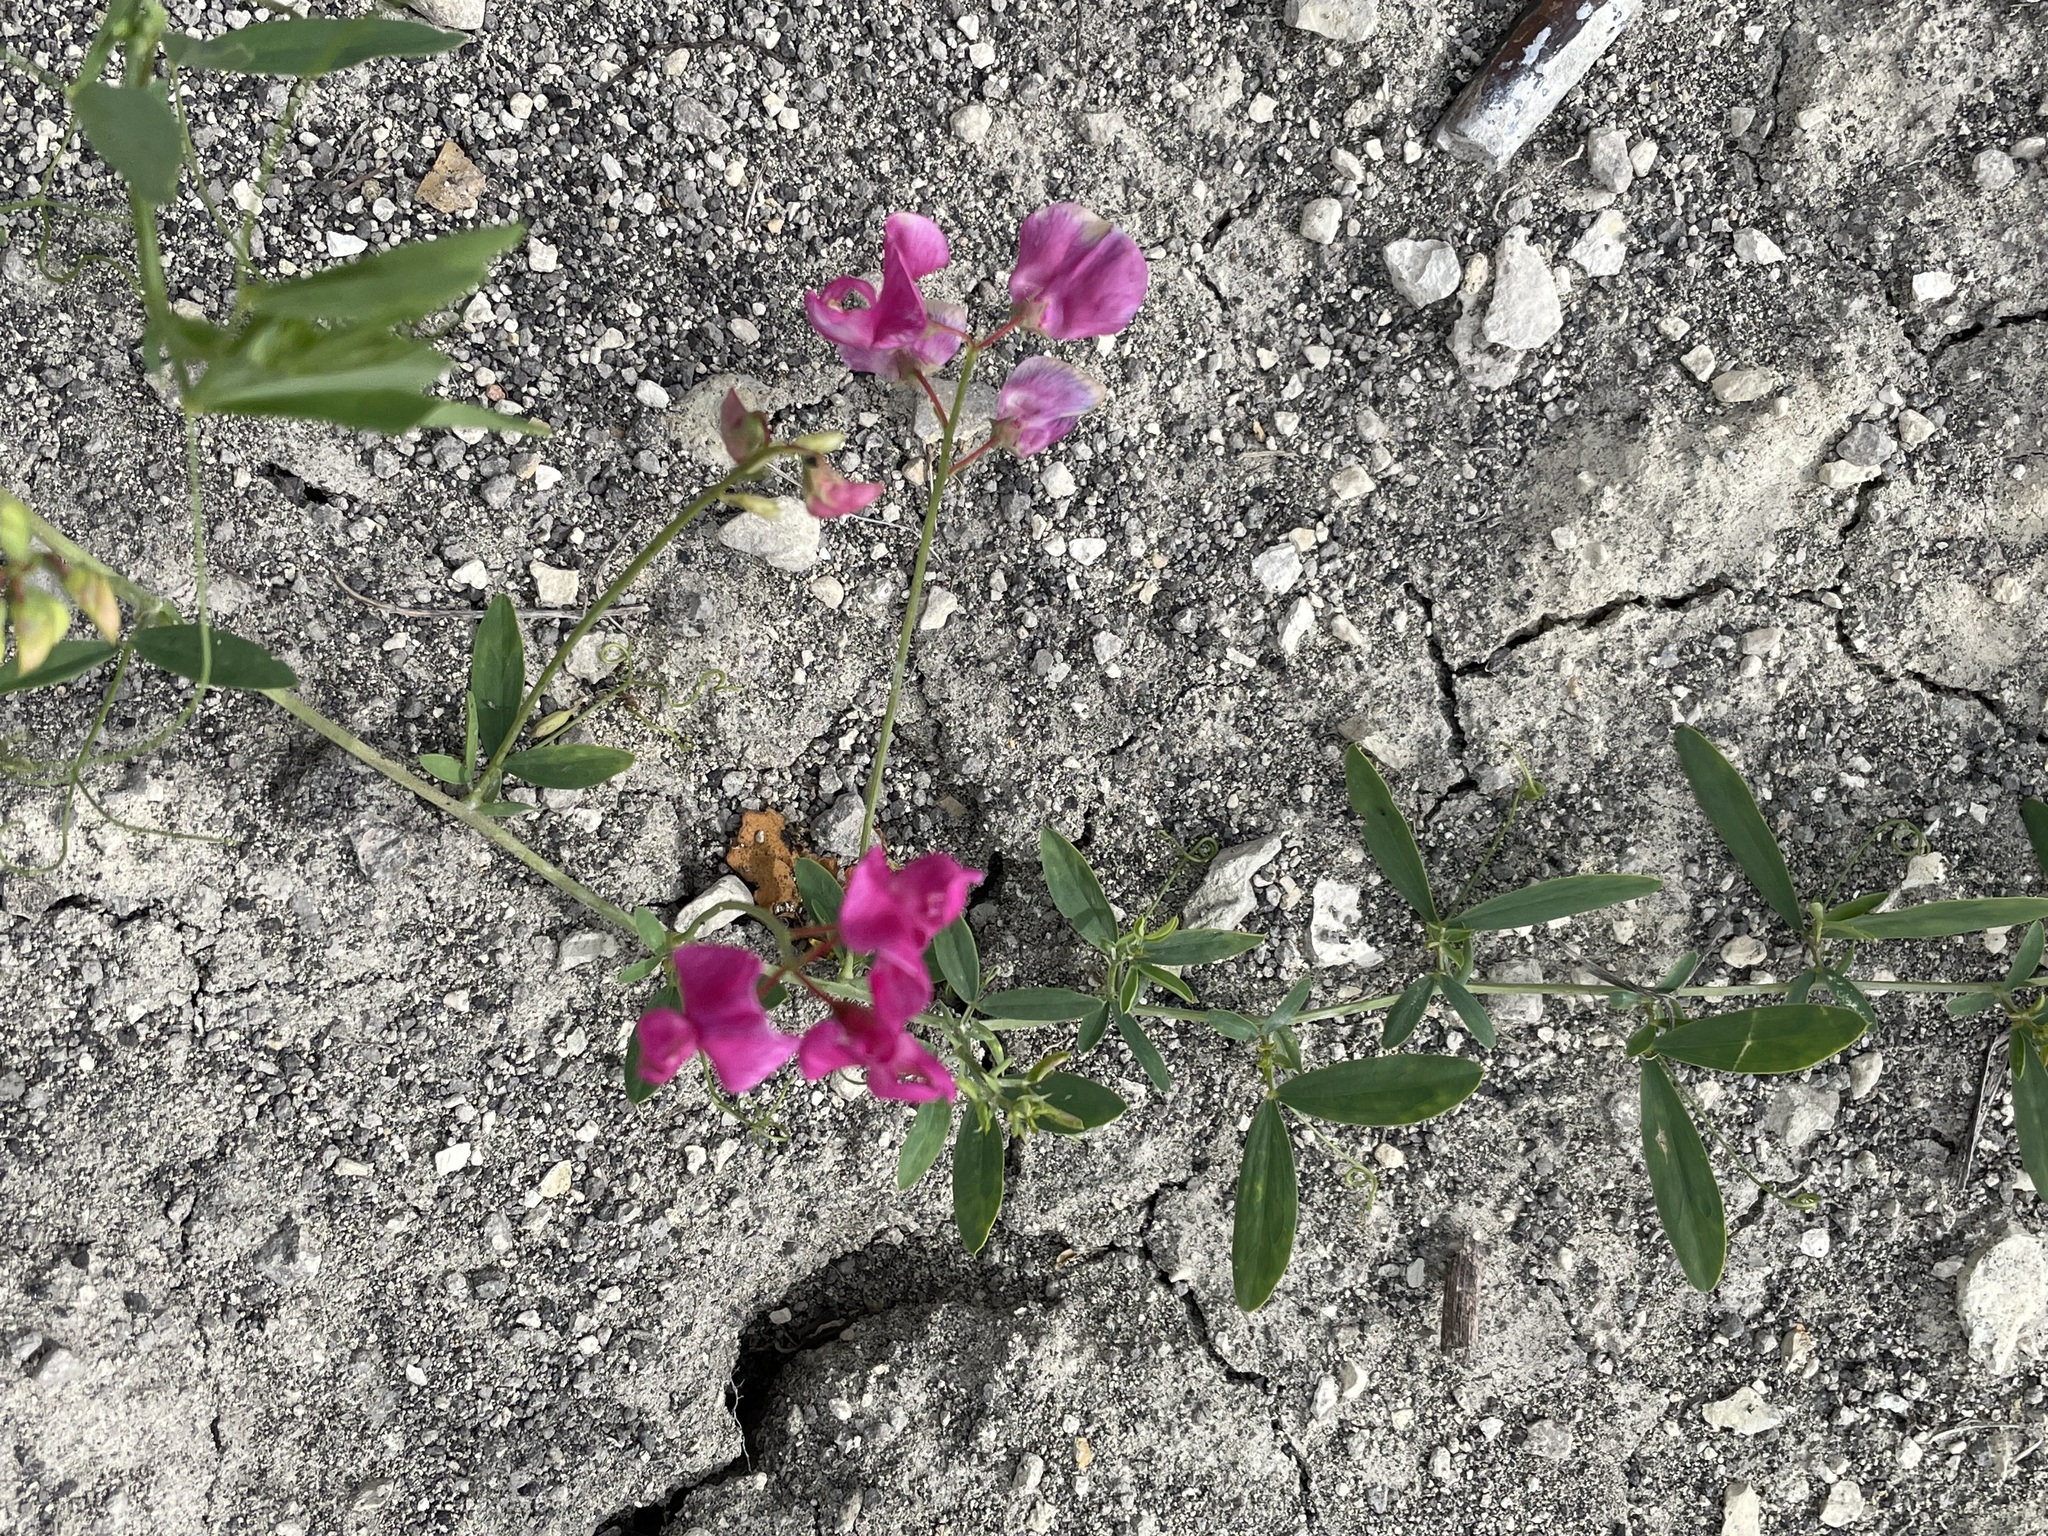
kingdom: Plantae
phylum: Tracheophyta
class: Magnoliopsida
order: Fabales
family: Fabaceae
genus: Lathyrus
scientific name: Lathyrus tuberosus
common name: Tuberous pea
